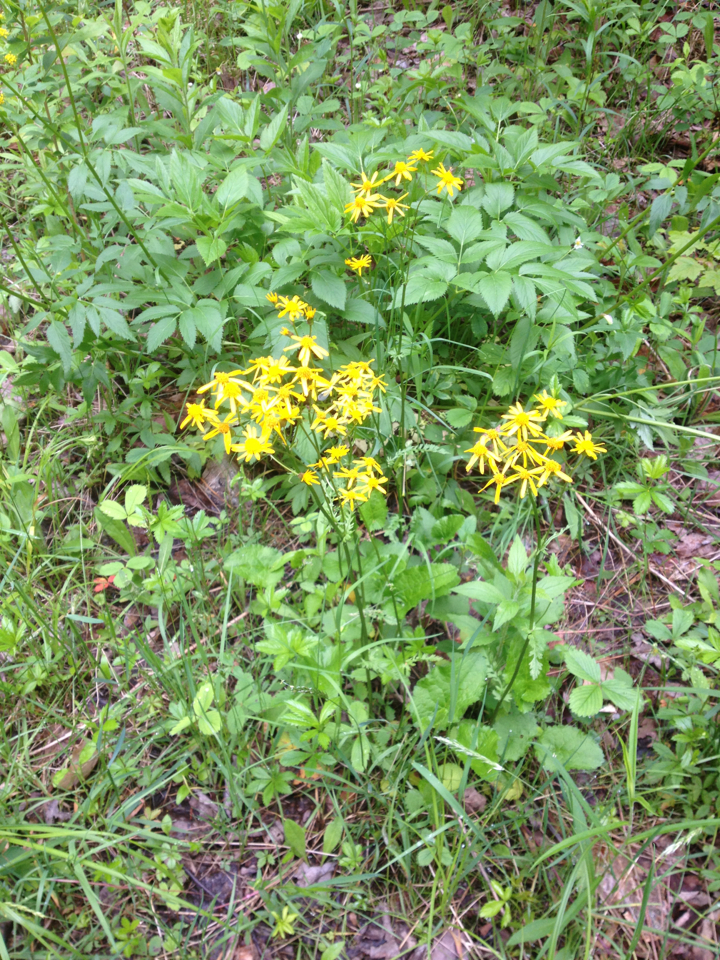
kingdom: Plantae
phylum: Tracheophyta
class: Magnoliopsida
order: Asterales
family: Asteraceae
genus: Packera
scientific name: Packera aurea
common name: Golden groundsel
